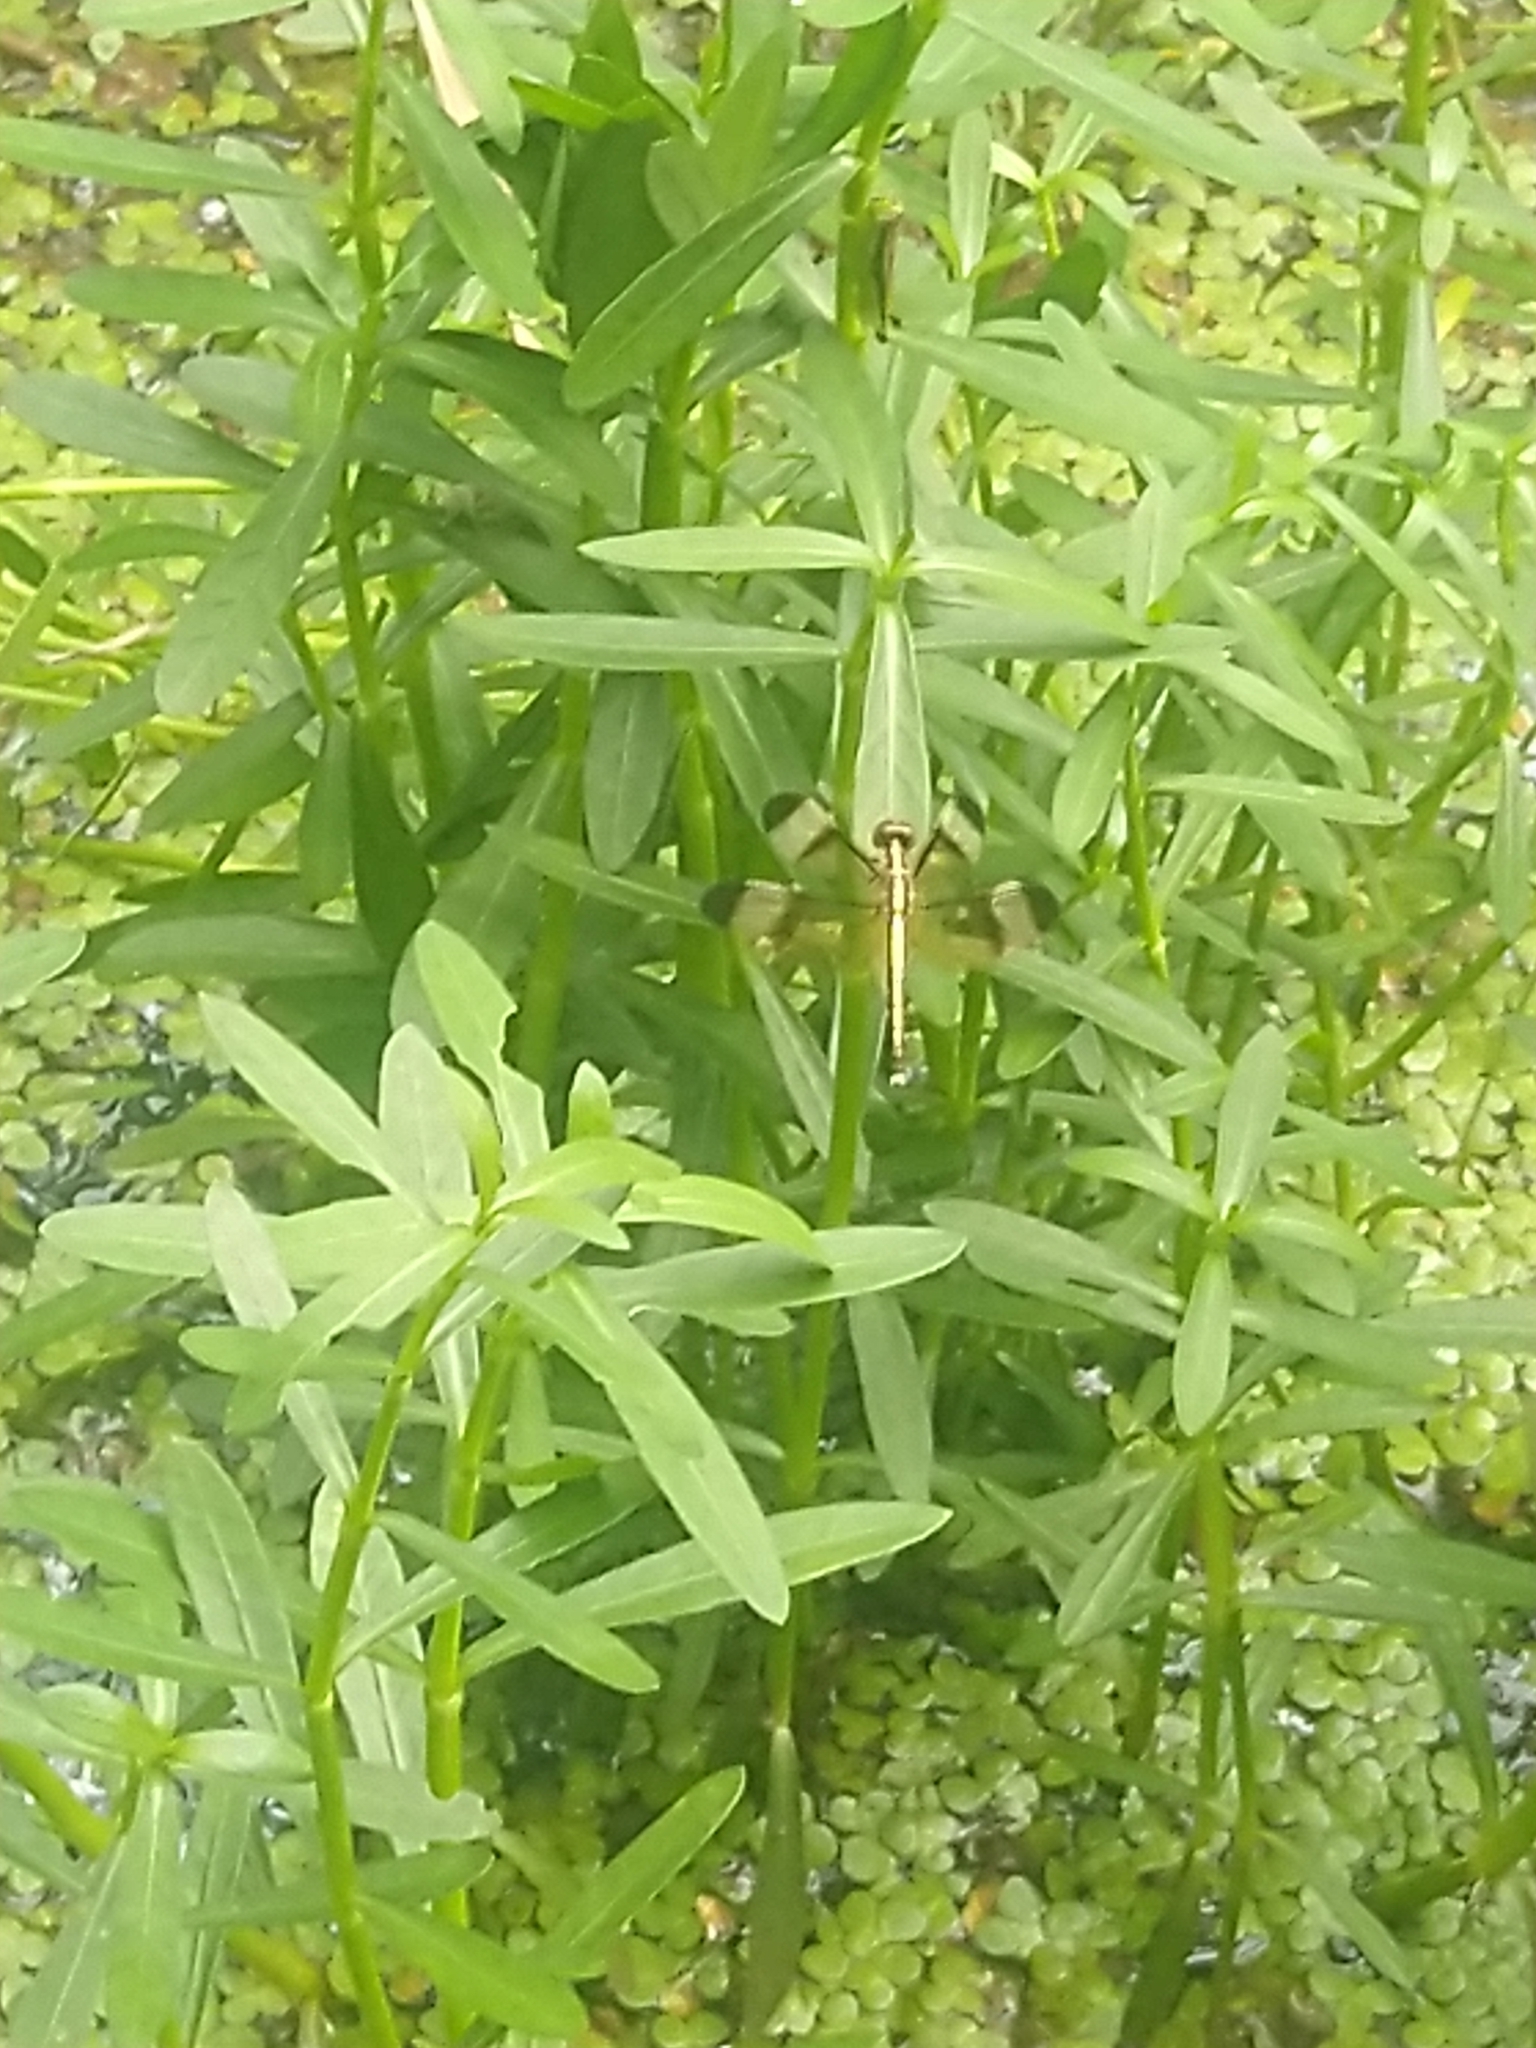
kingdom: Animalia
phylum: Arthropoda
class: Insecta
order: Odonata
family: Libellulidae
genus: Neurothemis
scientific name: Neurothemis tullia
